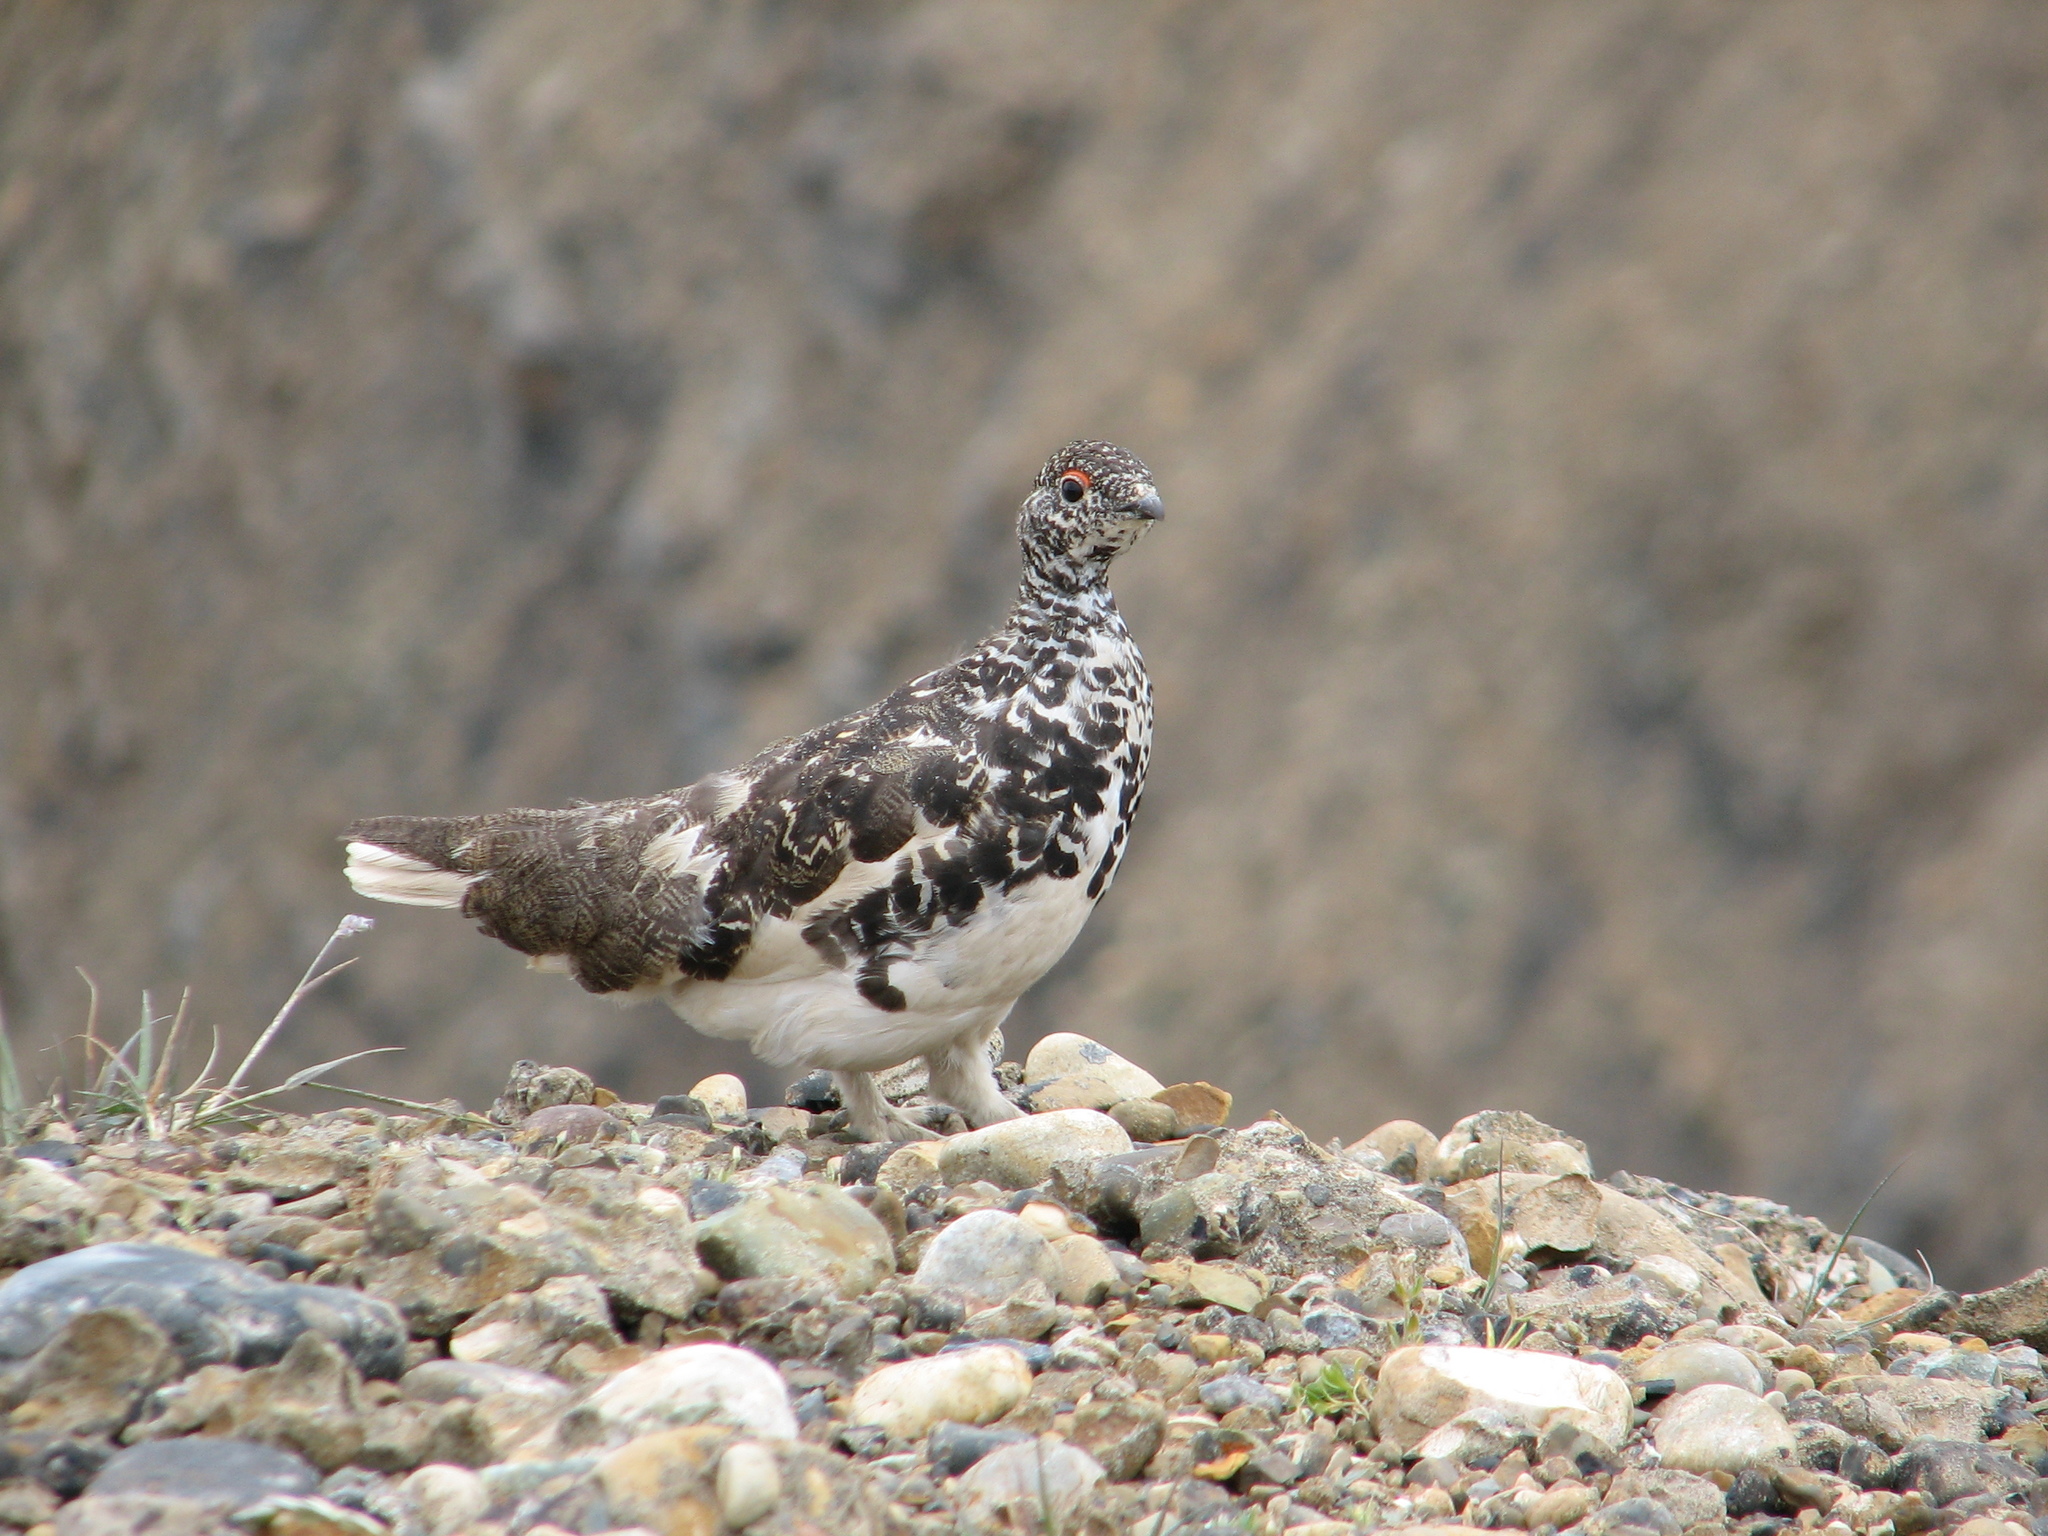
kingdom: Animalia
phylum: Chordata
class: Aves
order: Galliformes
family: Phasianidae
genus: Lagopus
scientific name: Lagopus leucura
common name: White-tailed ptarmigan
